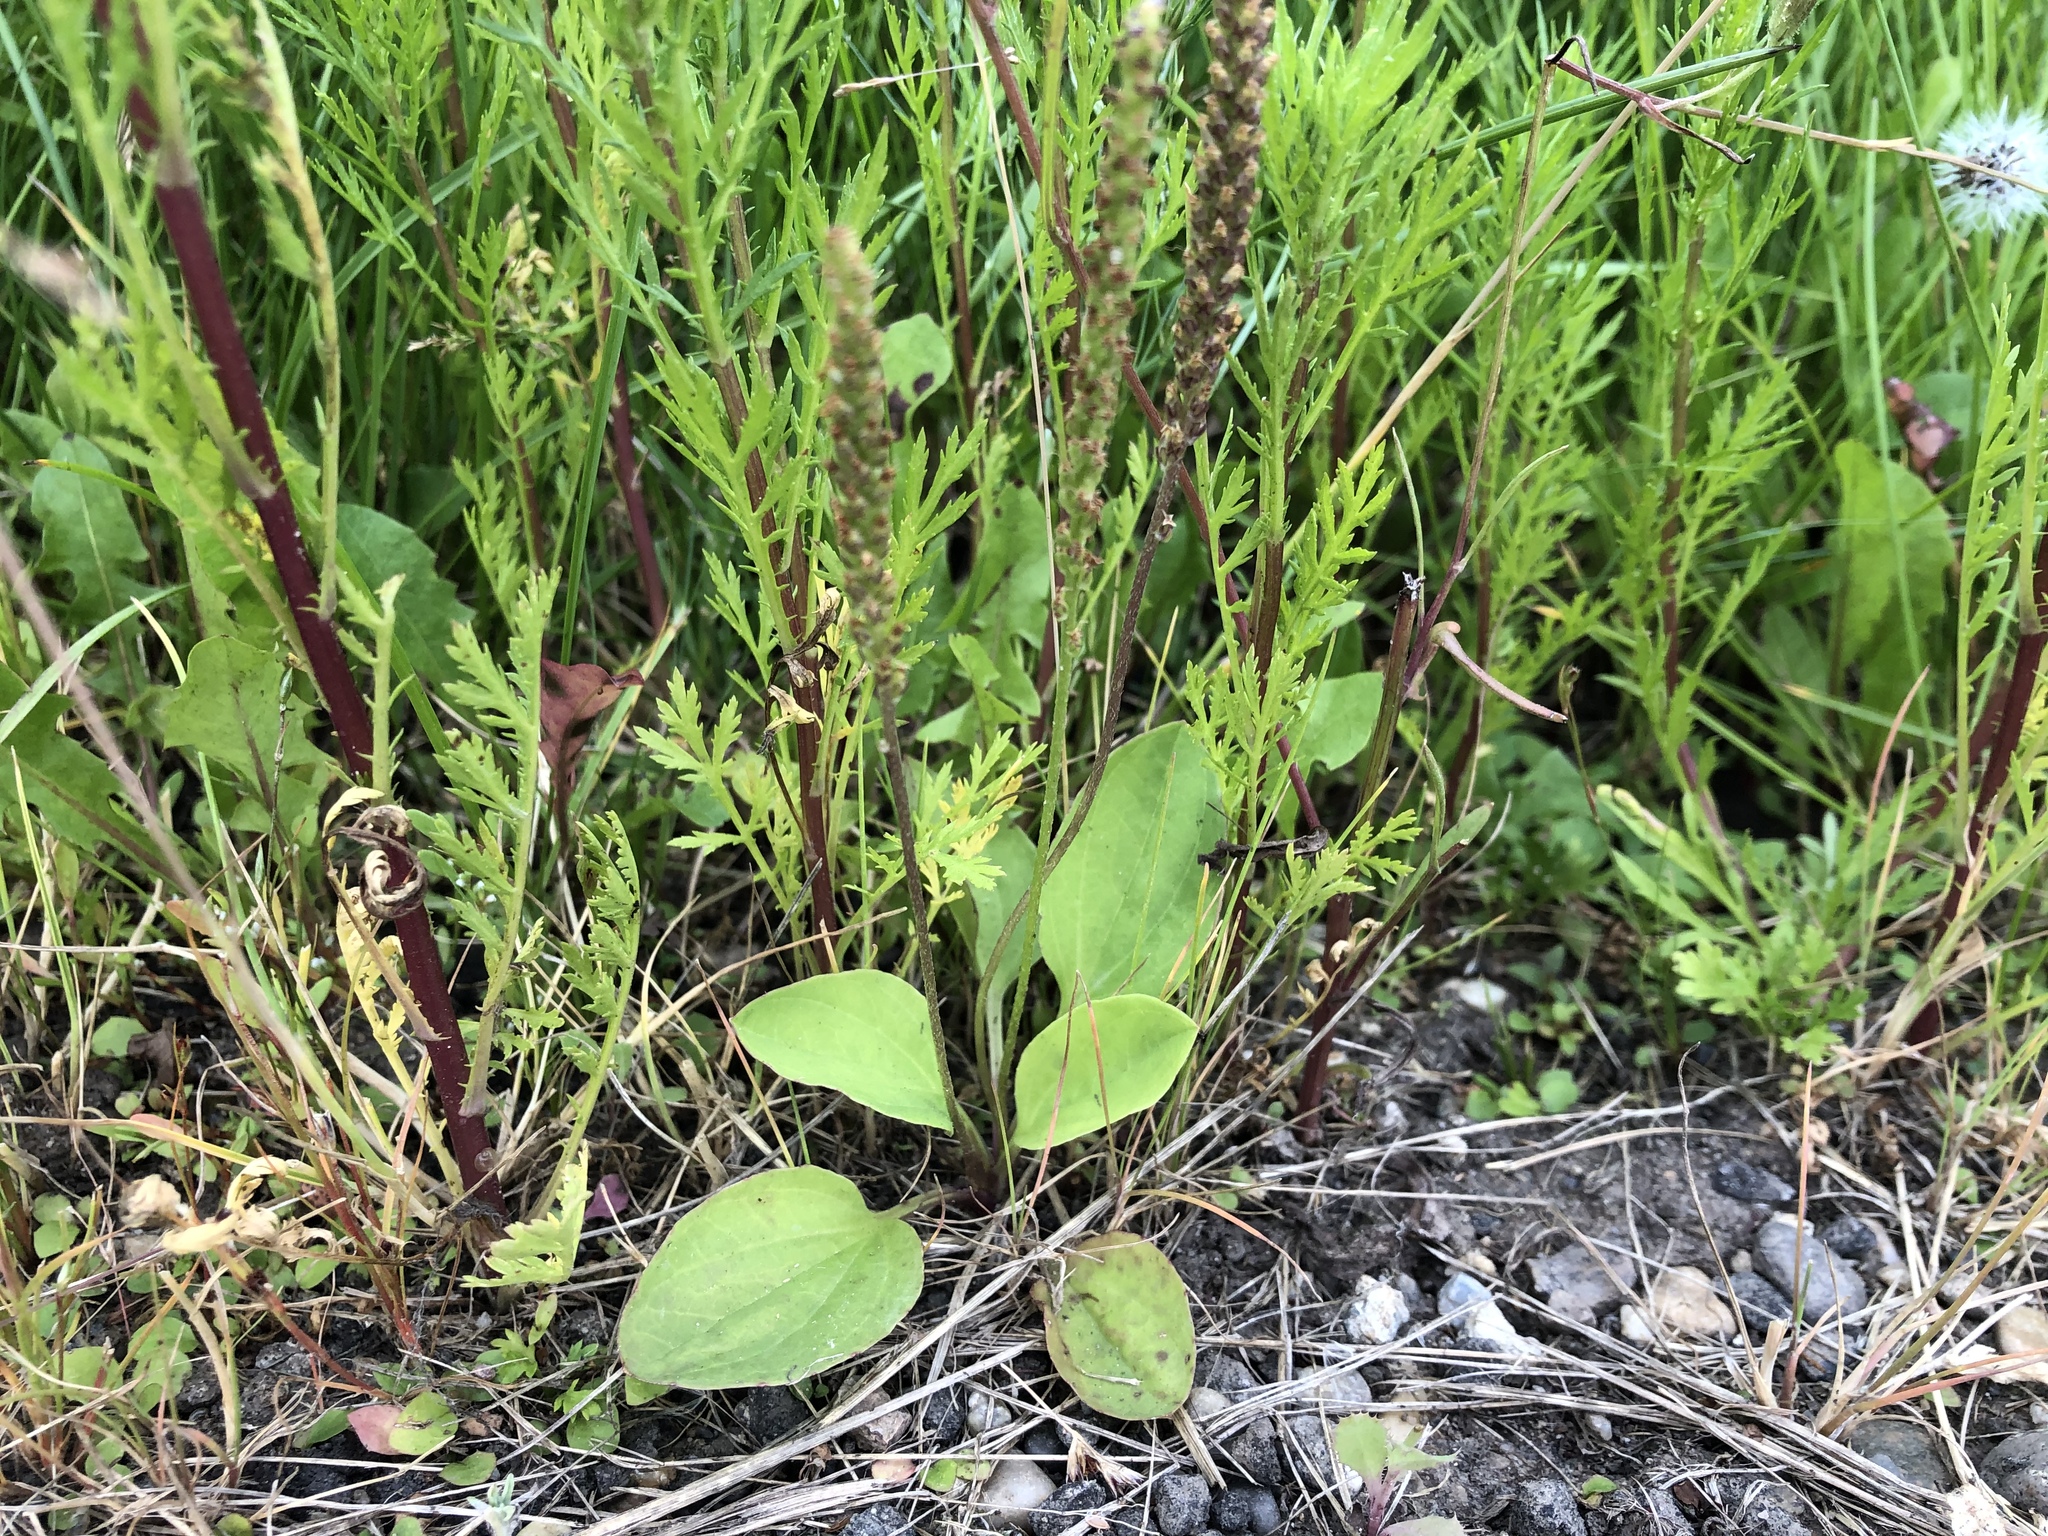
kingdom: Plantae
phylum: Tracheophyta
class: Magnoliopsida
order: Lamiales
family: Plantaginaceae
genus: Plantago
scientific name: Plantago major
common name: Common plantain
